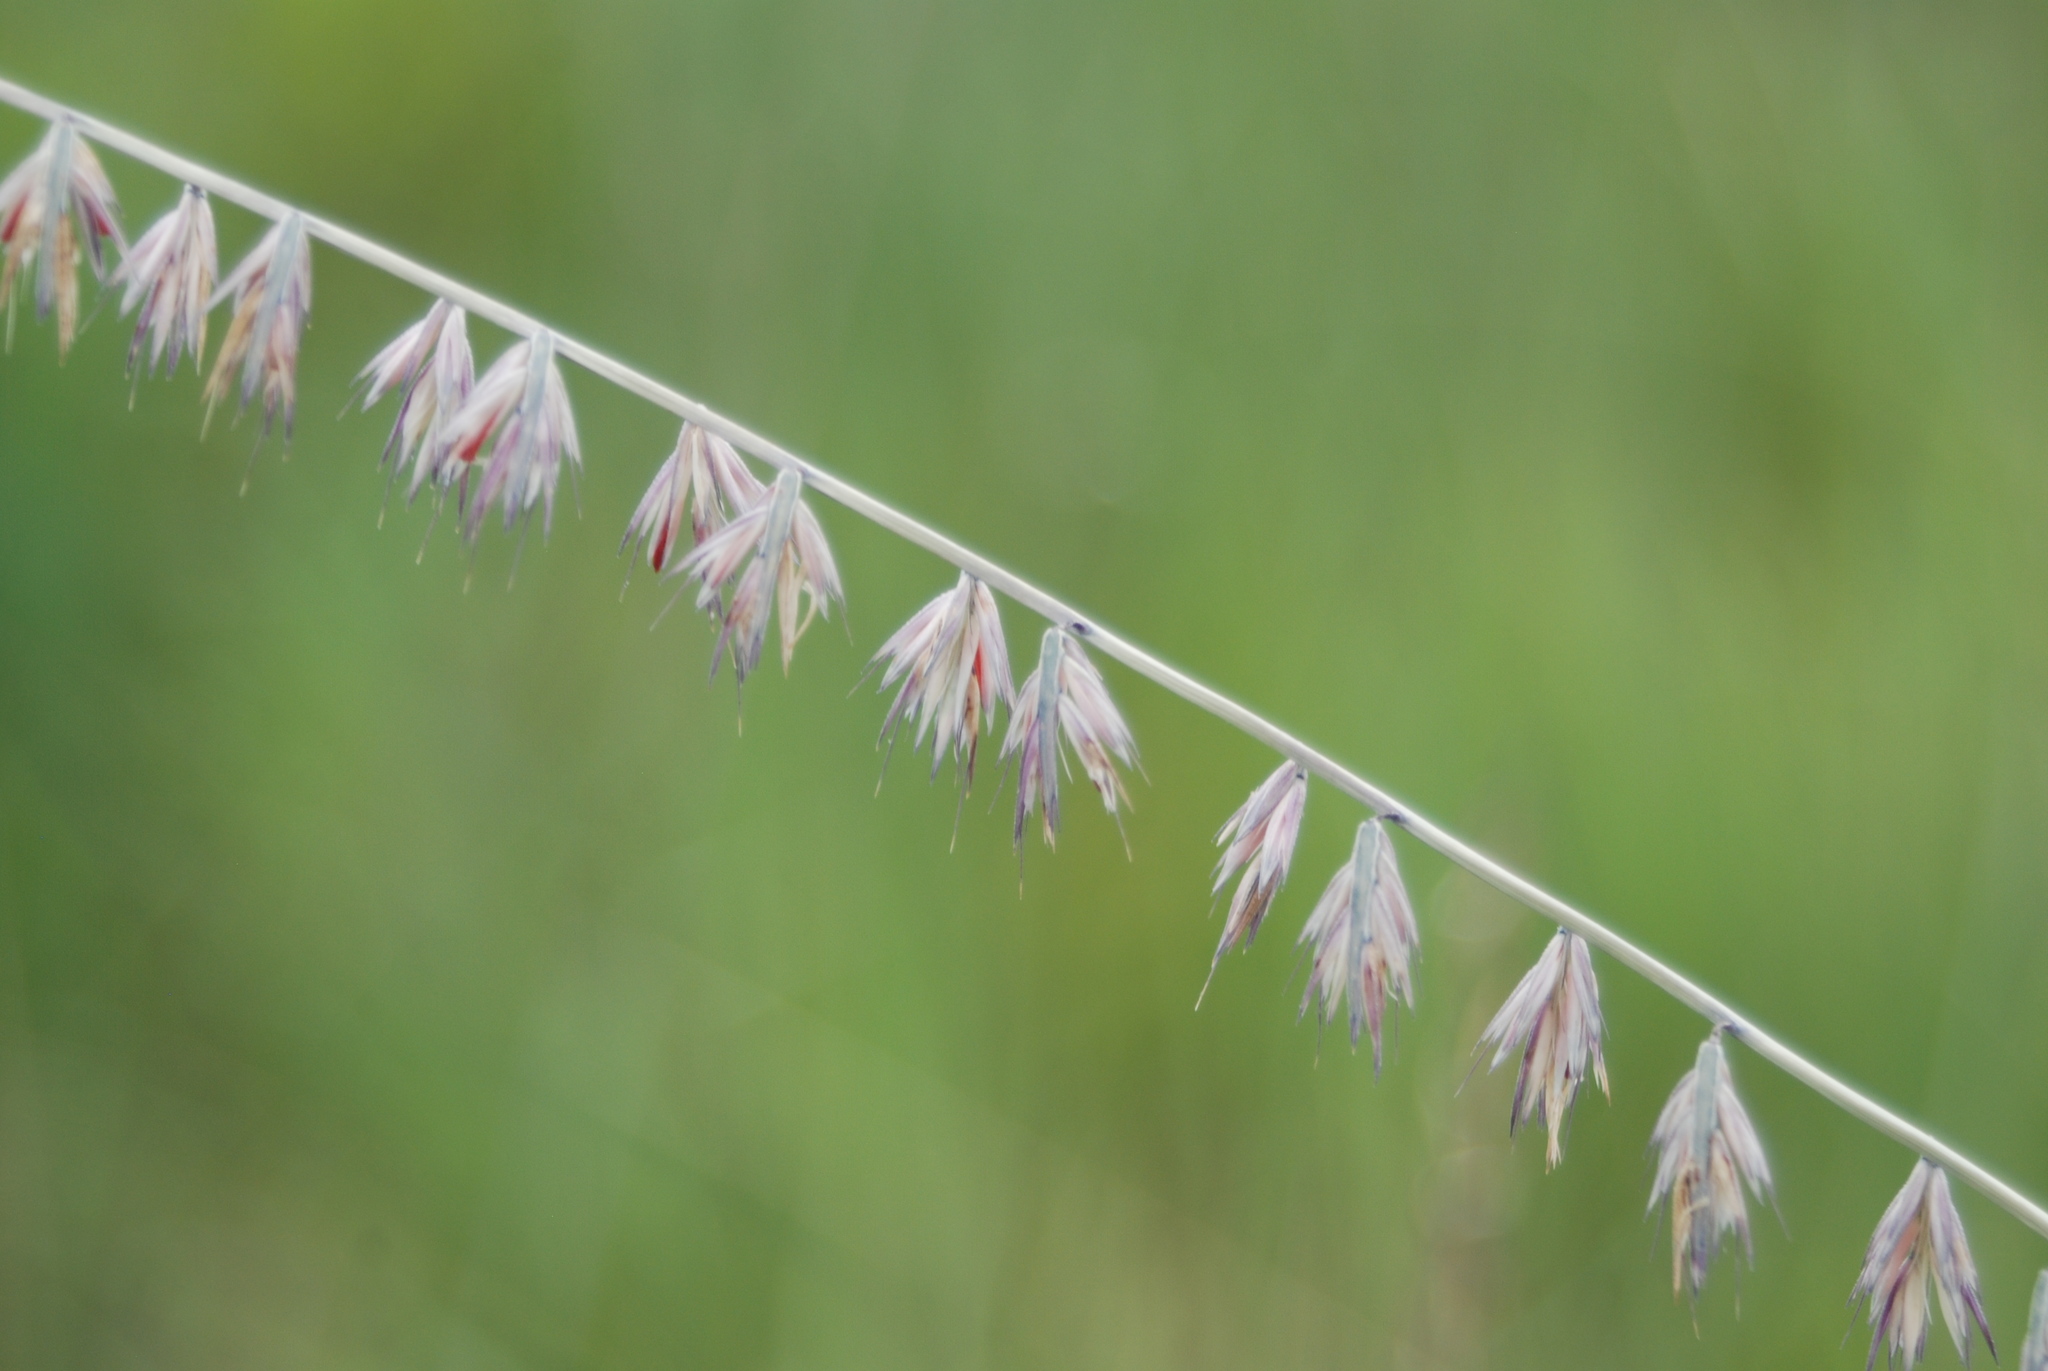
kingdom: Plantae
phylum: Tracheophyta
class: Liliopsida
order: Poales
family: Poaceae
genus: Bouteloua
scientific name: Bouteloua curtipendula
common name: Side-oats grama
